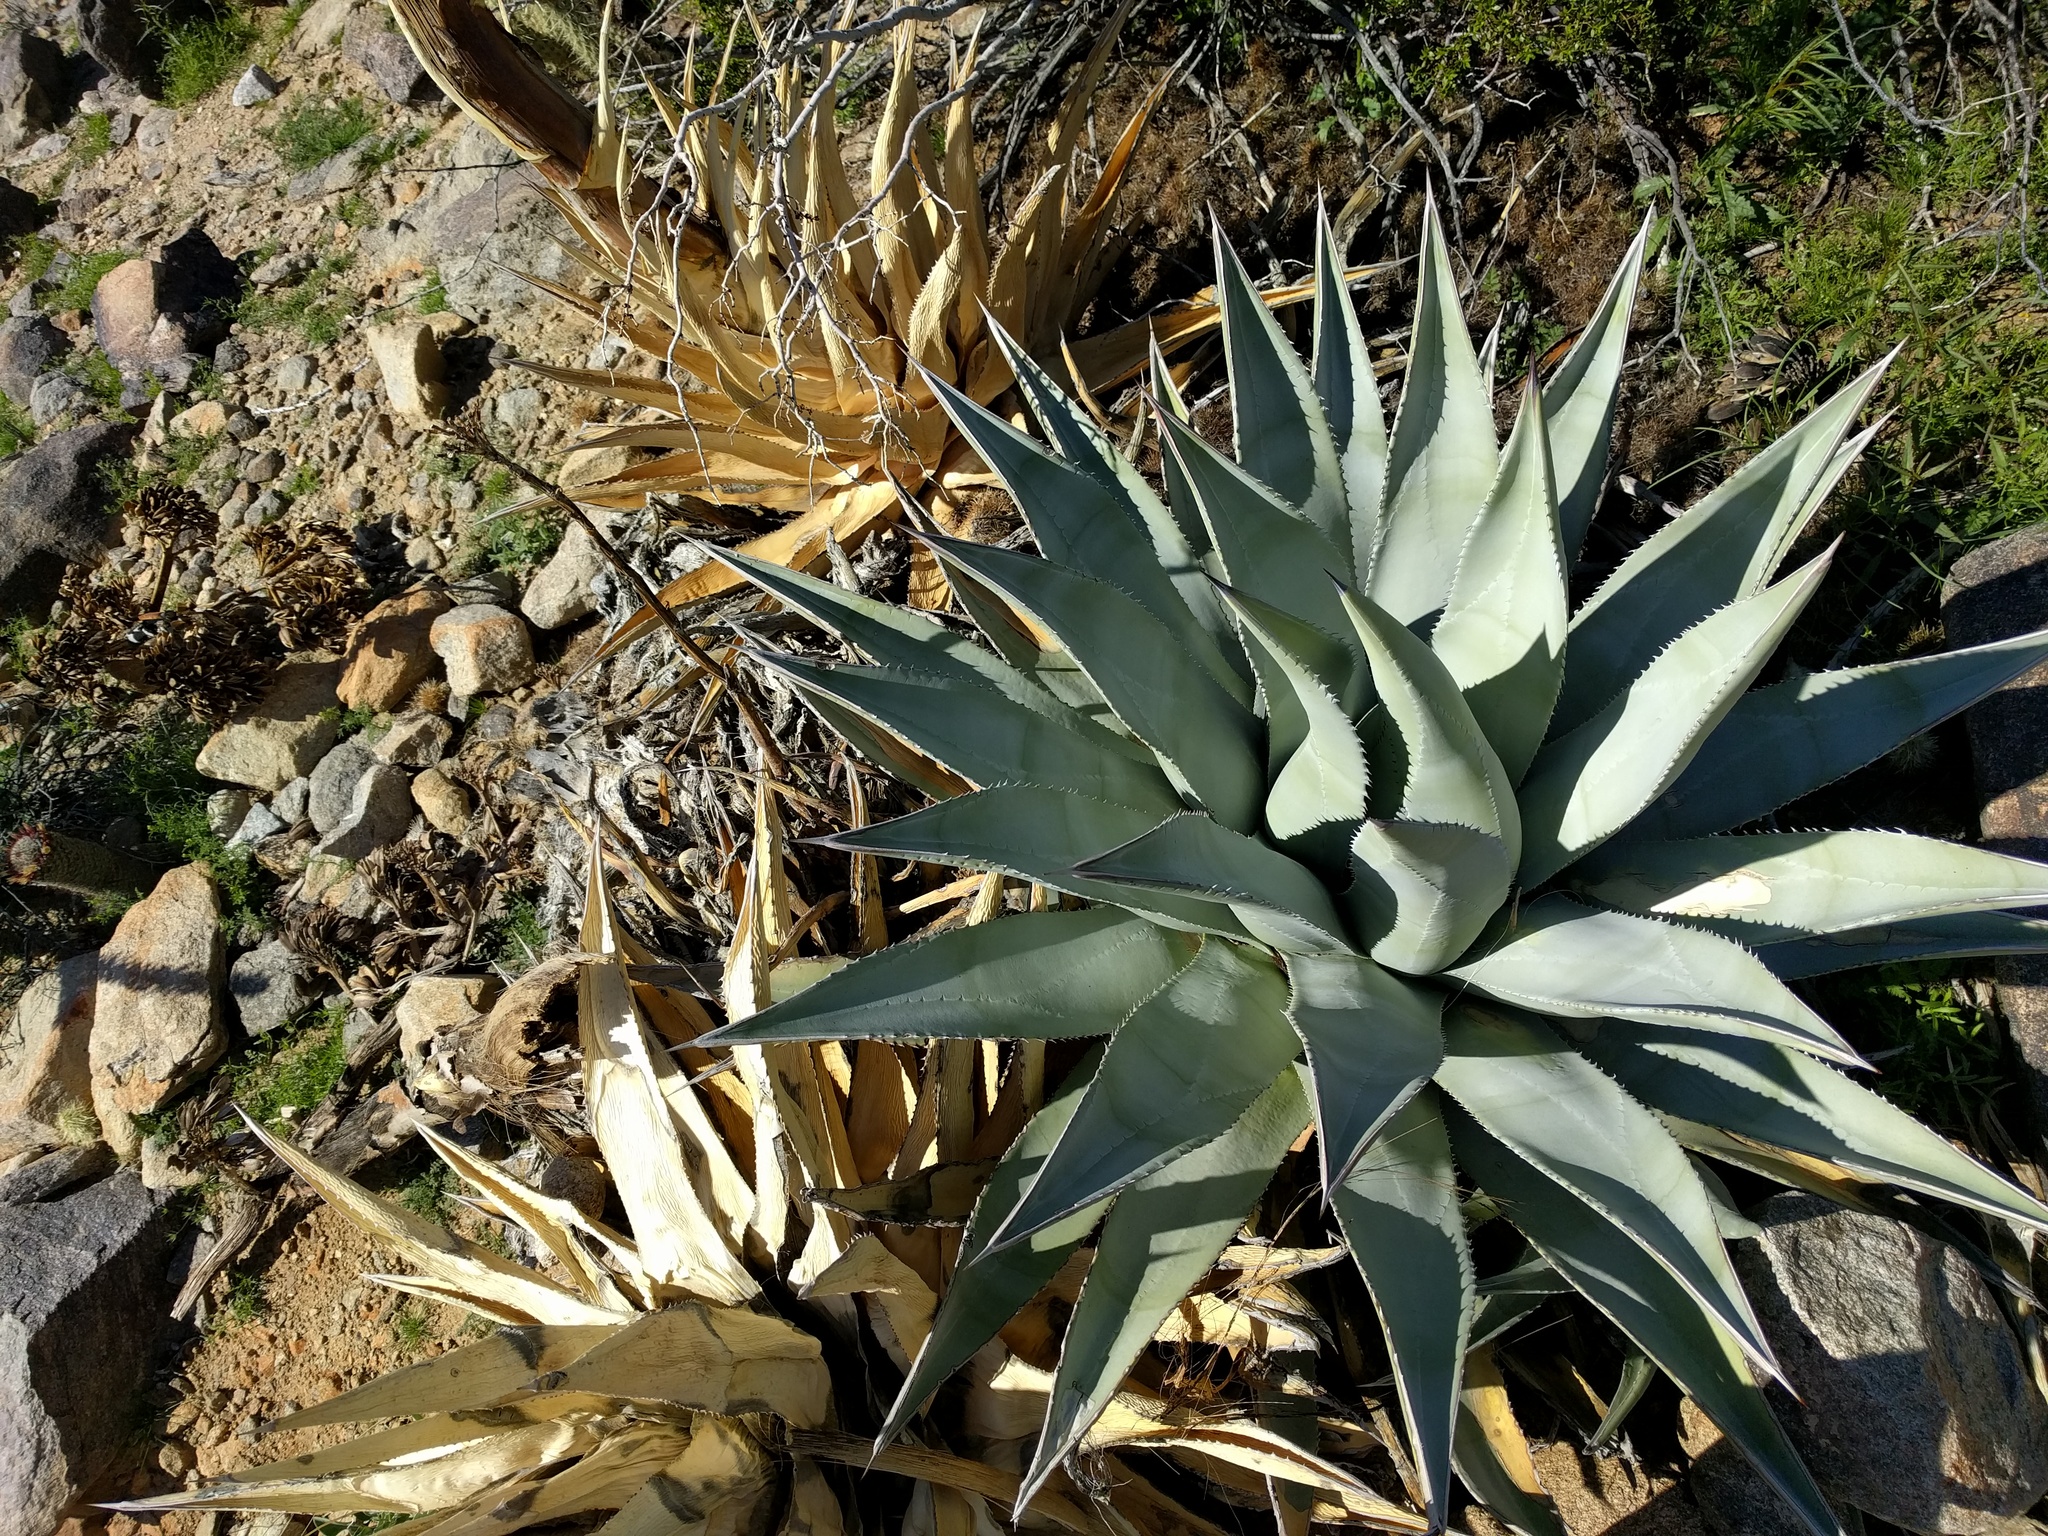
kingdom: Plantae
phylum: Tracheophyta
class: Liliopsida
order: Asparagales
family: Asparagaceae
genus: Agave
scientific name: Agave deserti
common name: Desert agave
